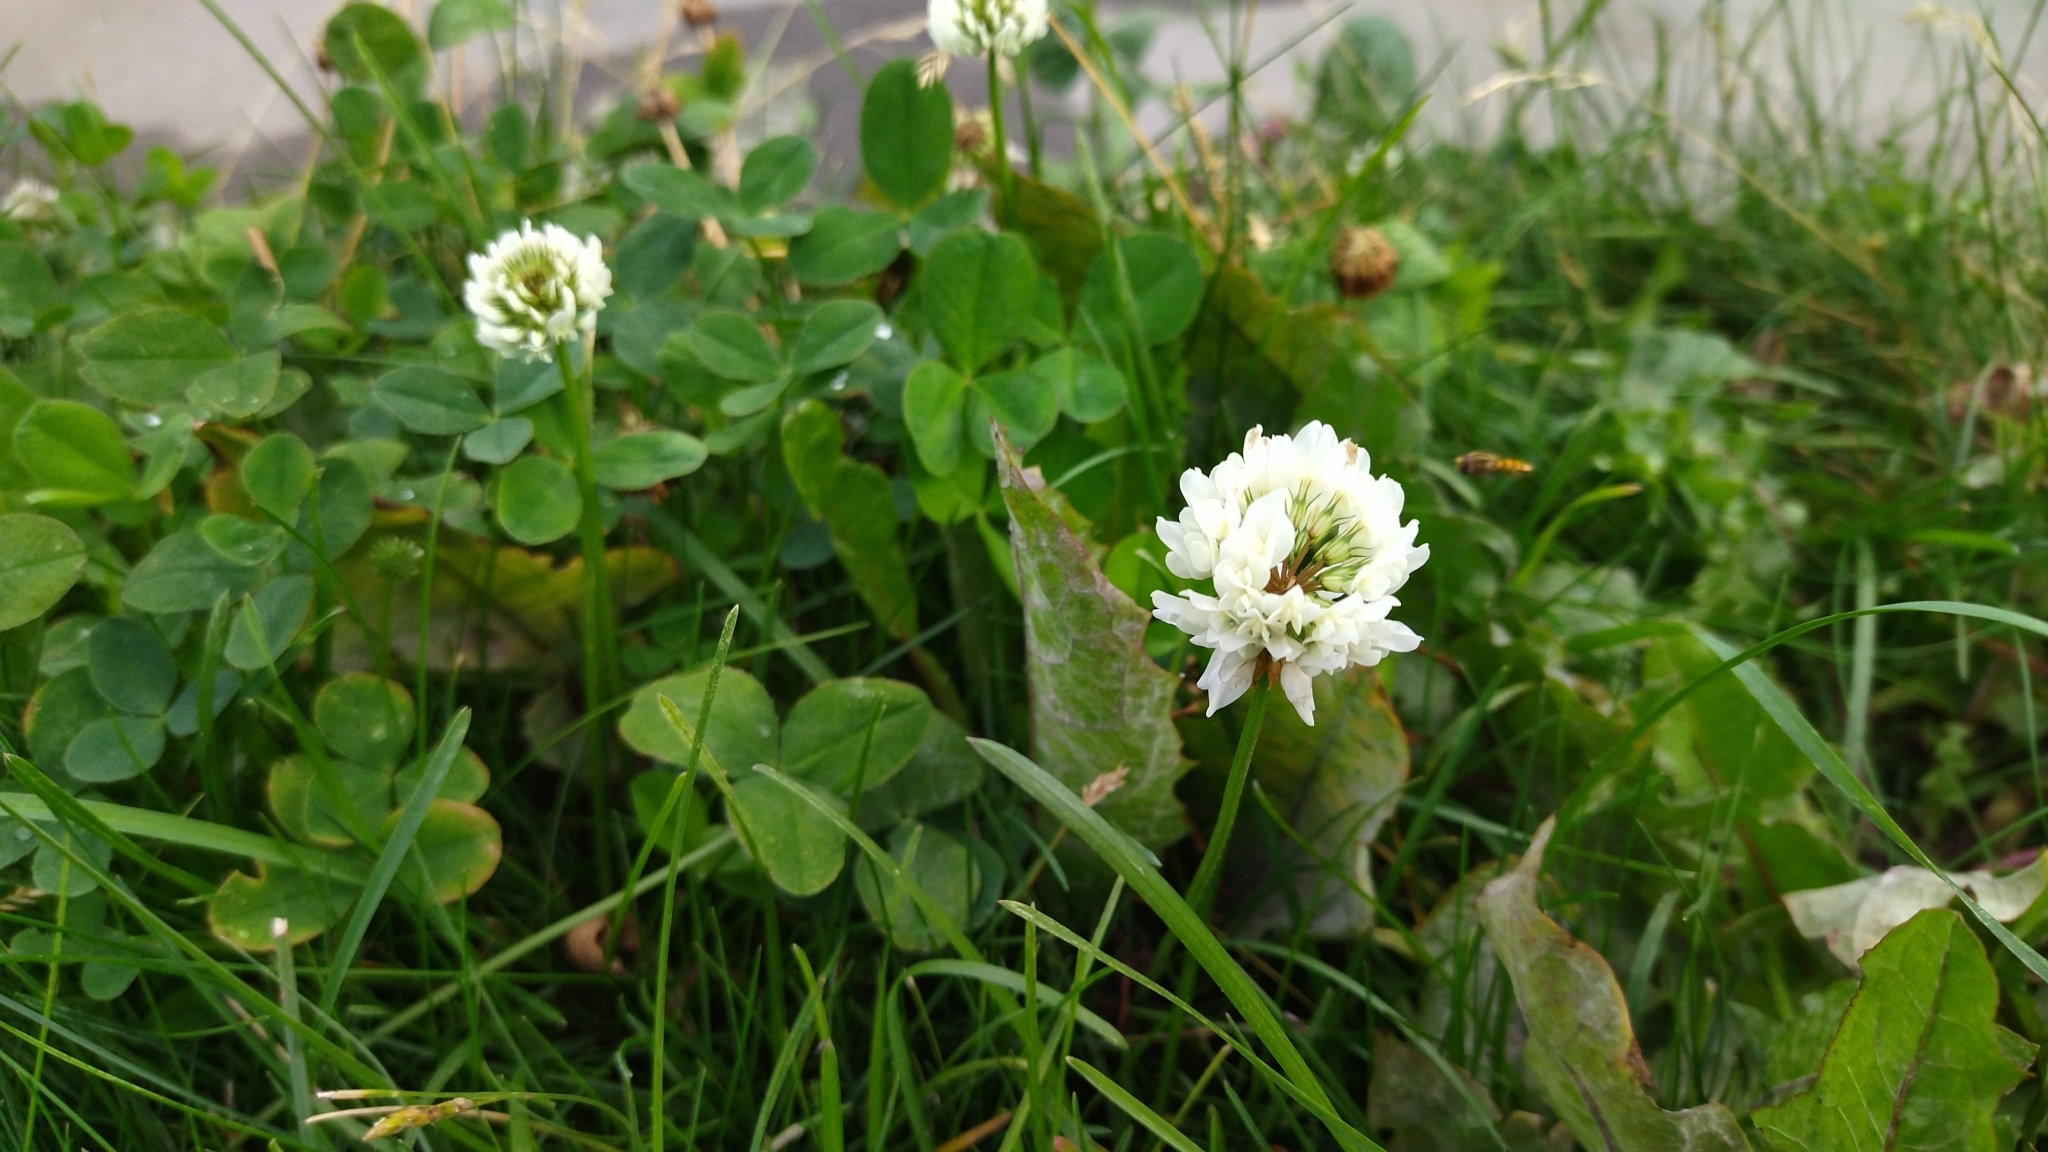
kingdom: Plantae
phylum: Tracheophyta
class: Magnoliopsida
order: Fabales
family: Fabaceae
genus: Trifolium
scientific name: Trifolium repens
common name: White clover
